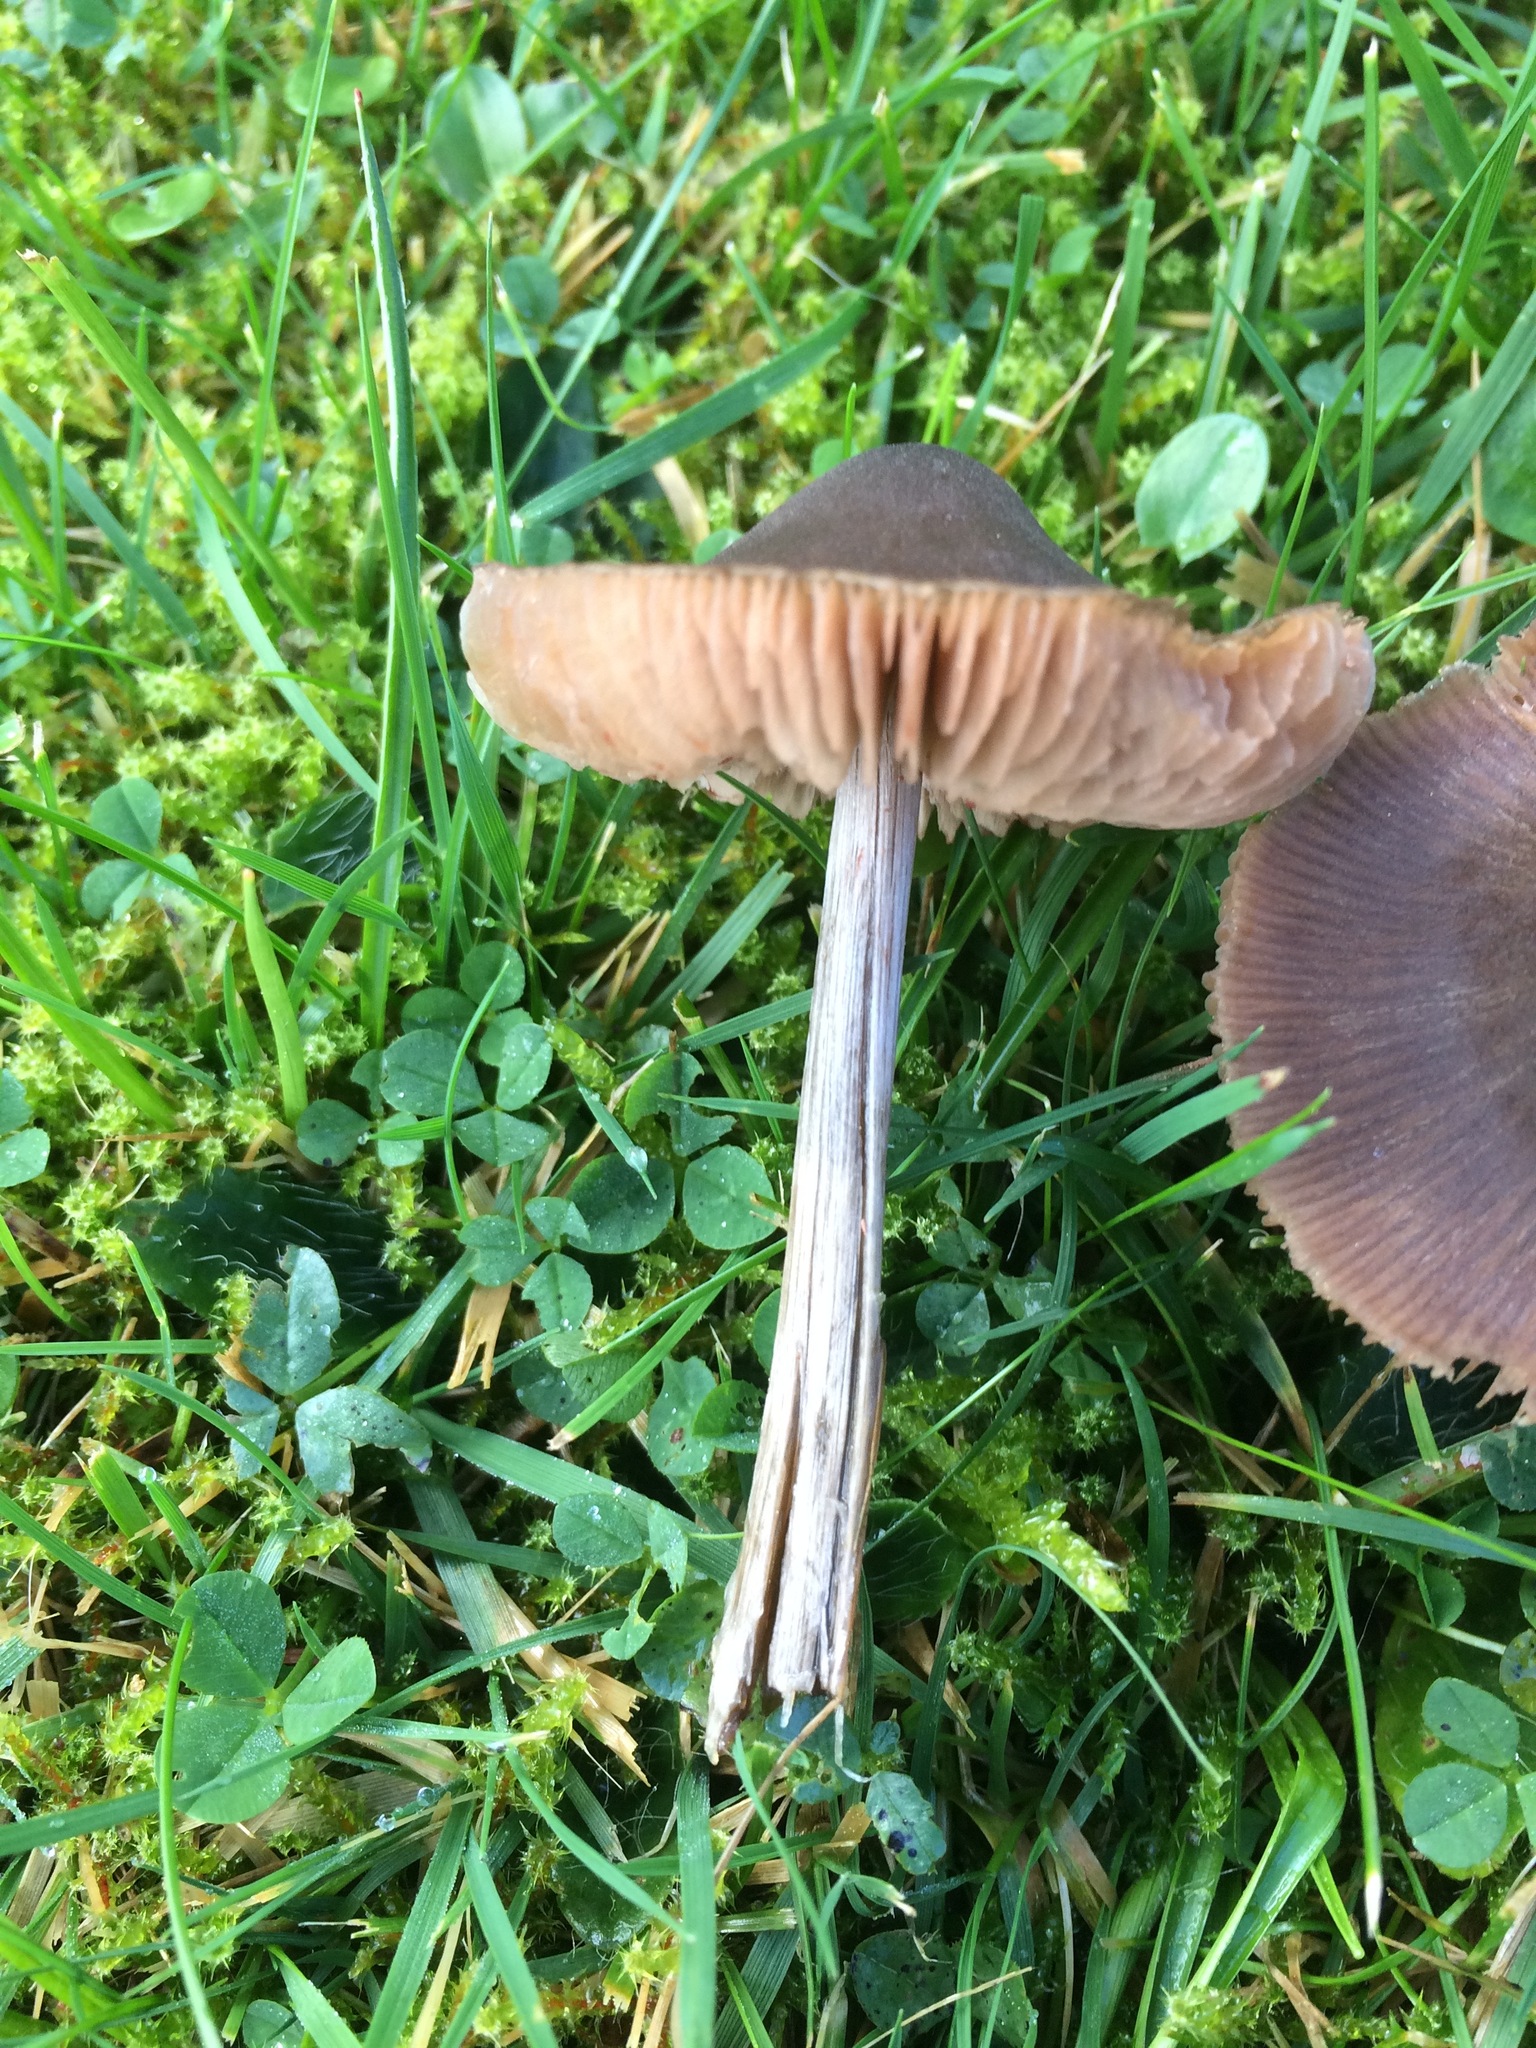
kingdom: Fungi
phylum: Basidiomycota
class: Agaricomycetes
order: Agaricales
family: Entolomataceae
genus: Entoloma
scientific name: Entoloma conferendum
